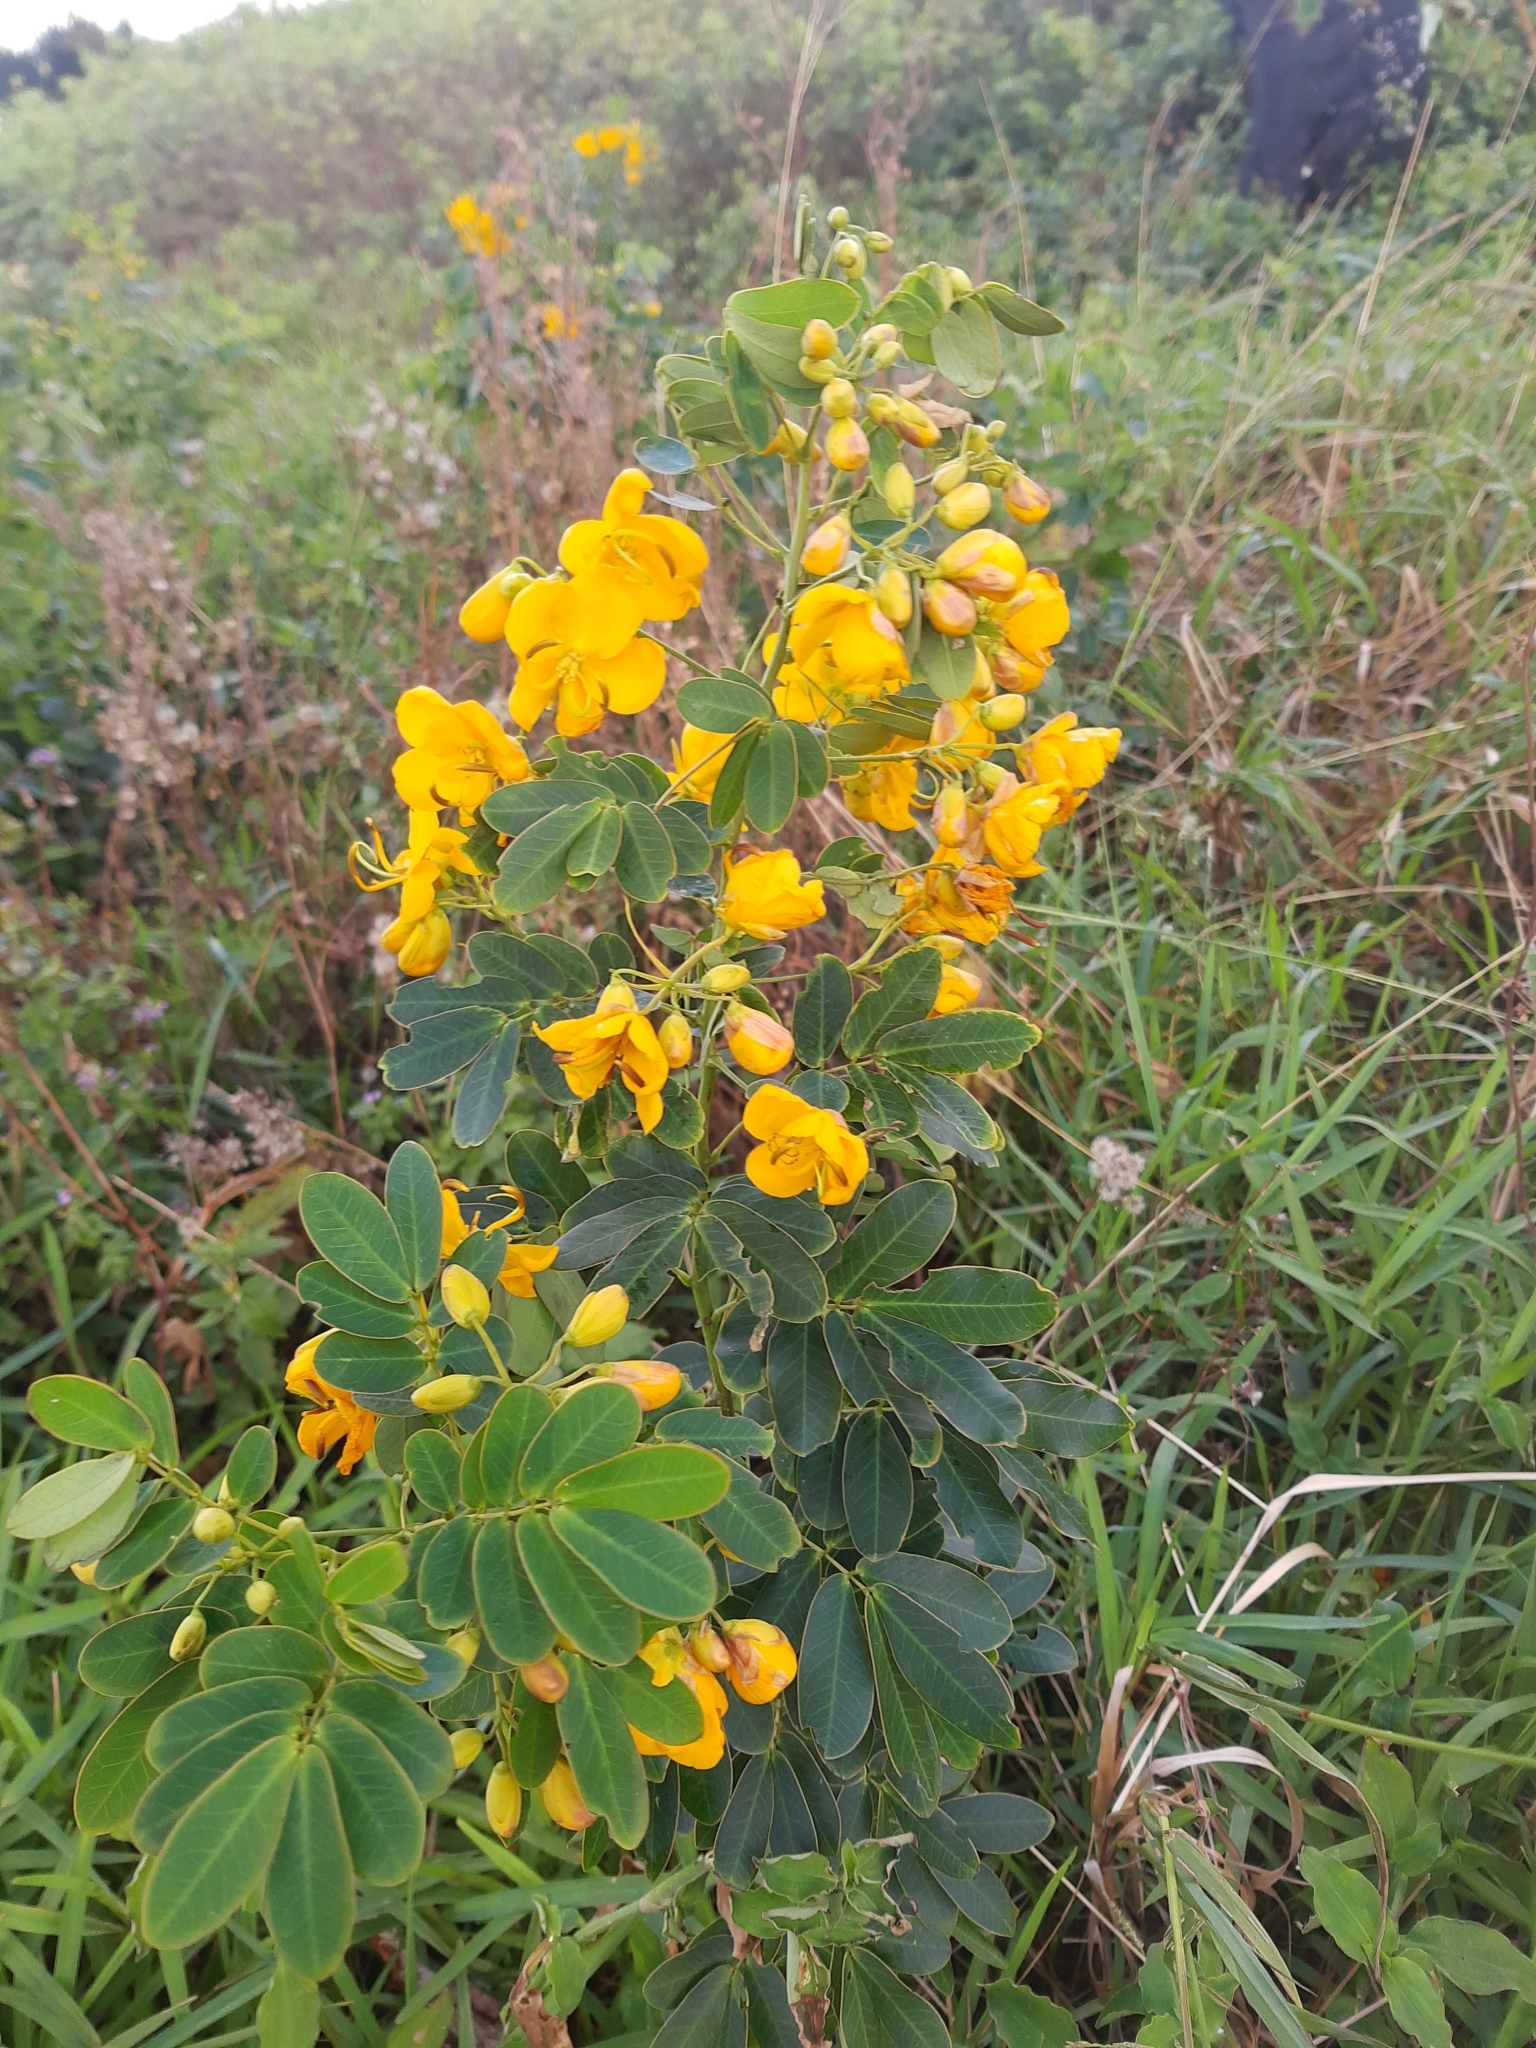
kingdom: Plantae
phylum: Tracheophyta
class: Magnoliopsida
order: Fabales
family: Fabaceae
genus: Senna
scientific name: Senna pendula
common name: Easter cassia
